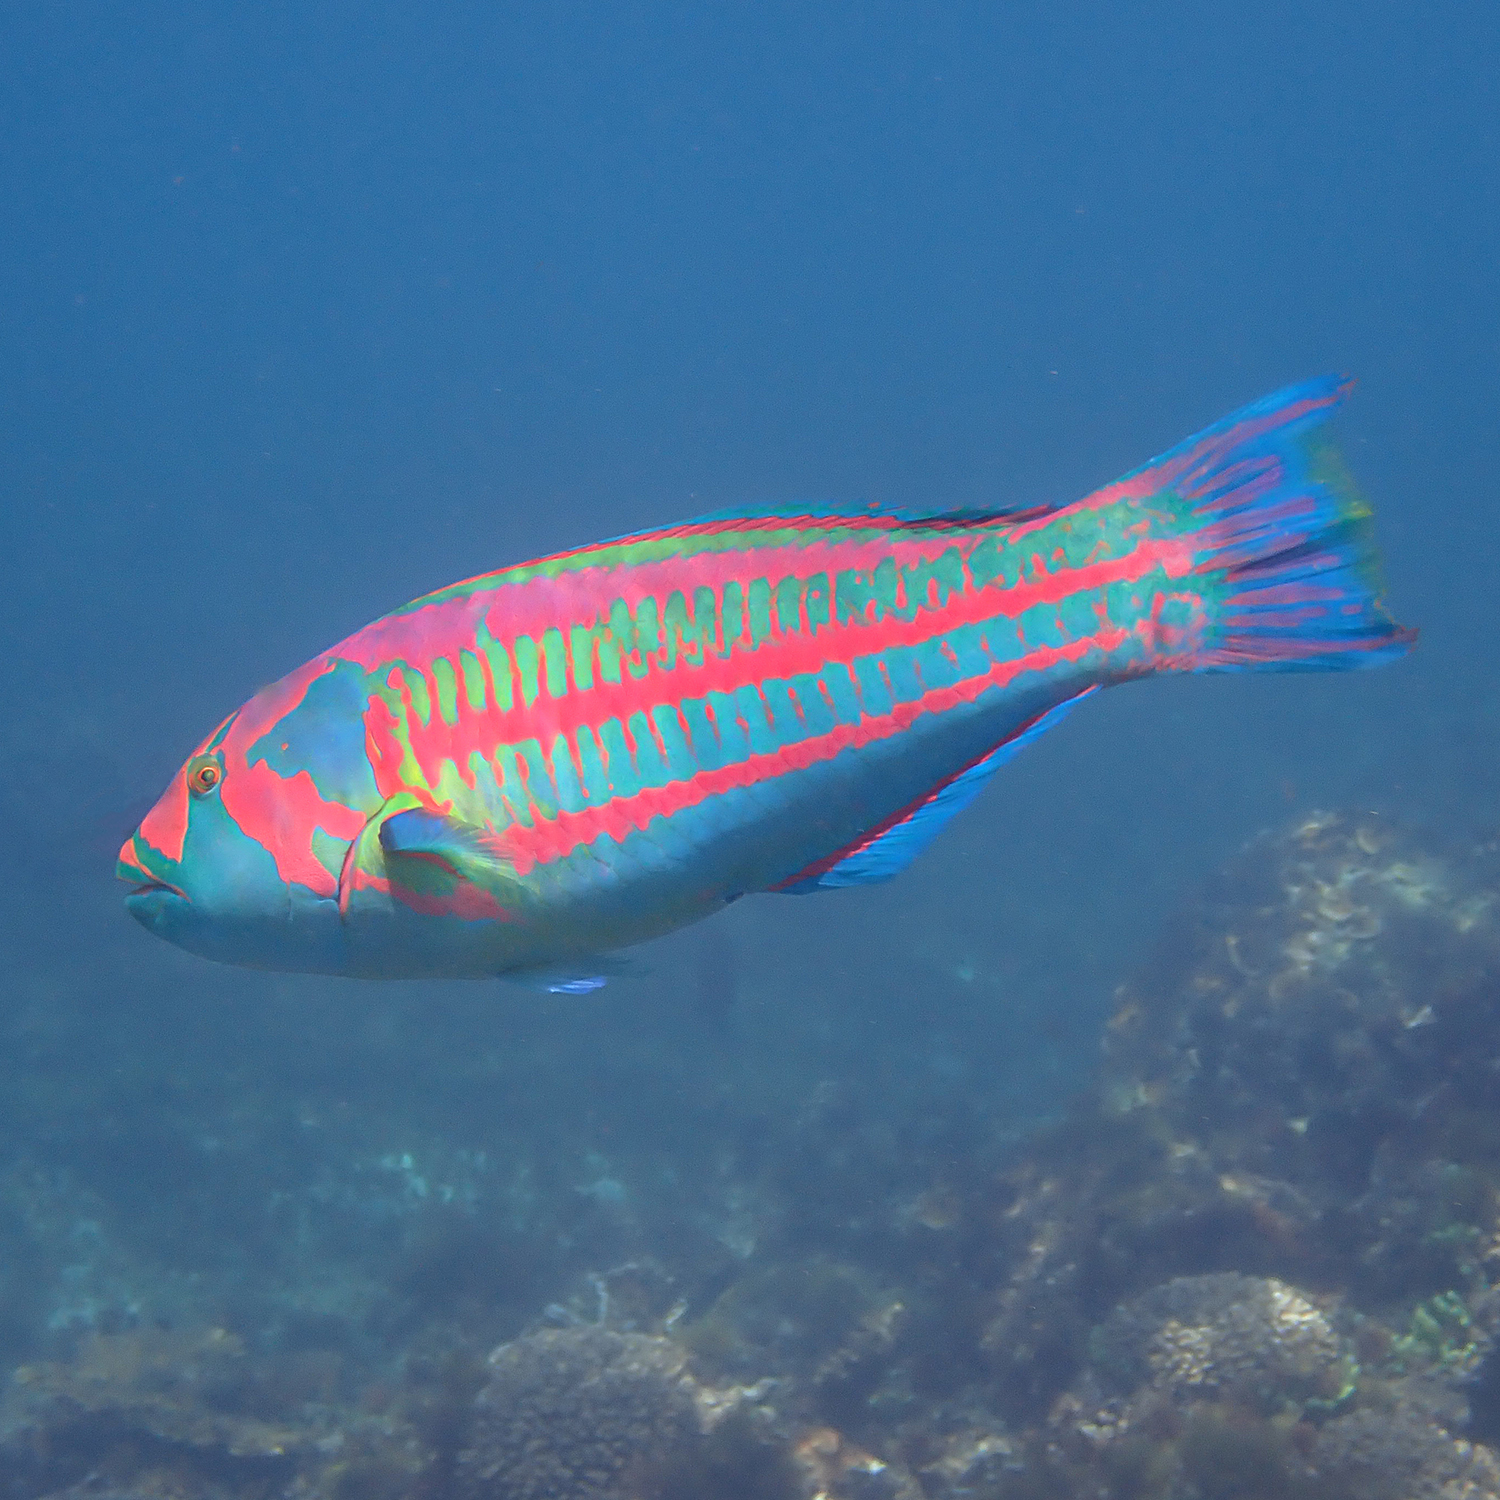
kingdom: Animalia
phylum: Chordata
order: Perciformes
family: Labridae
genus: Thalassoma
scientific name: Thalassoma purpureum
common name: Parrotfish
